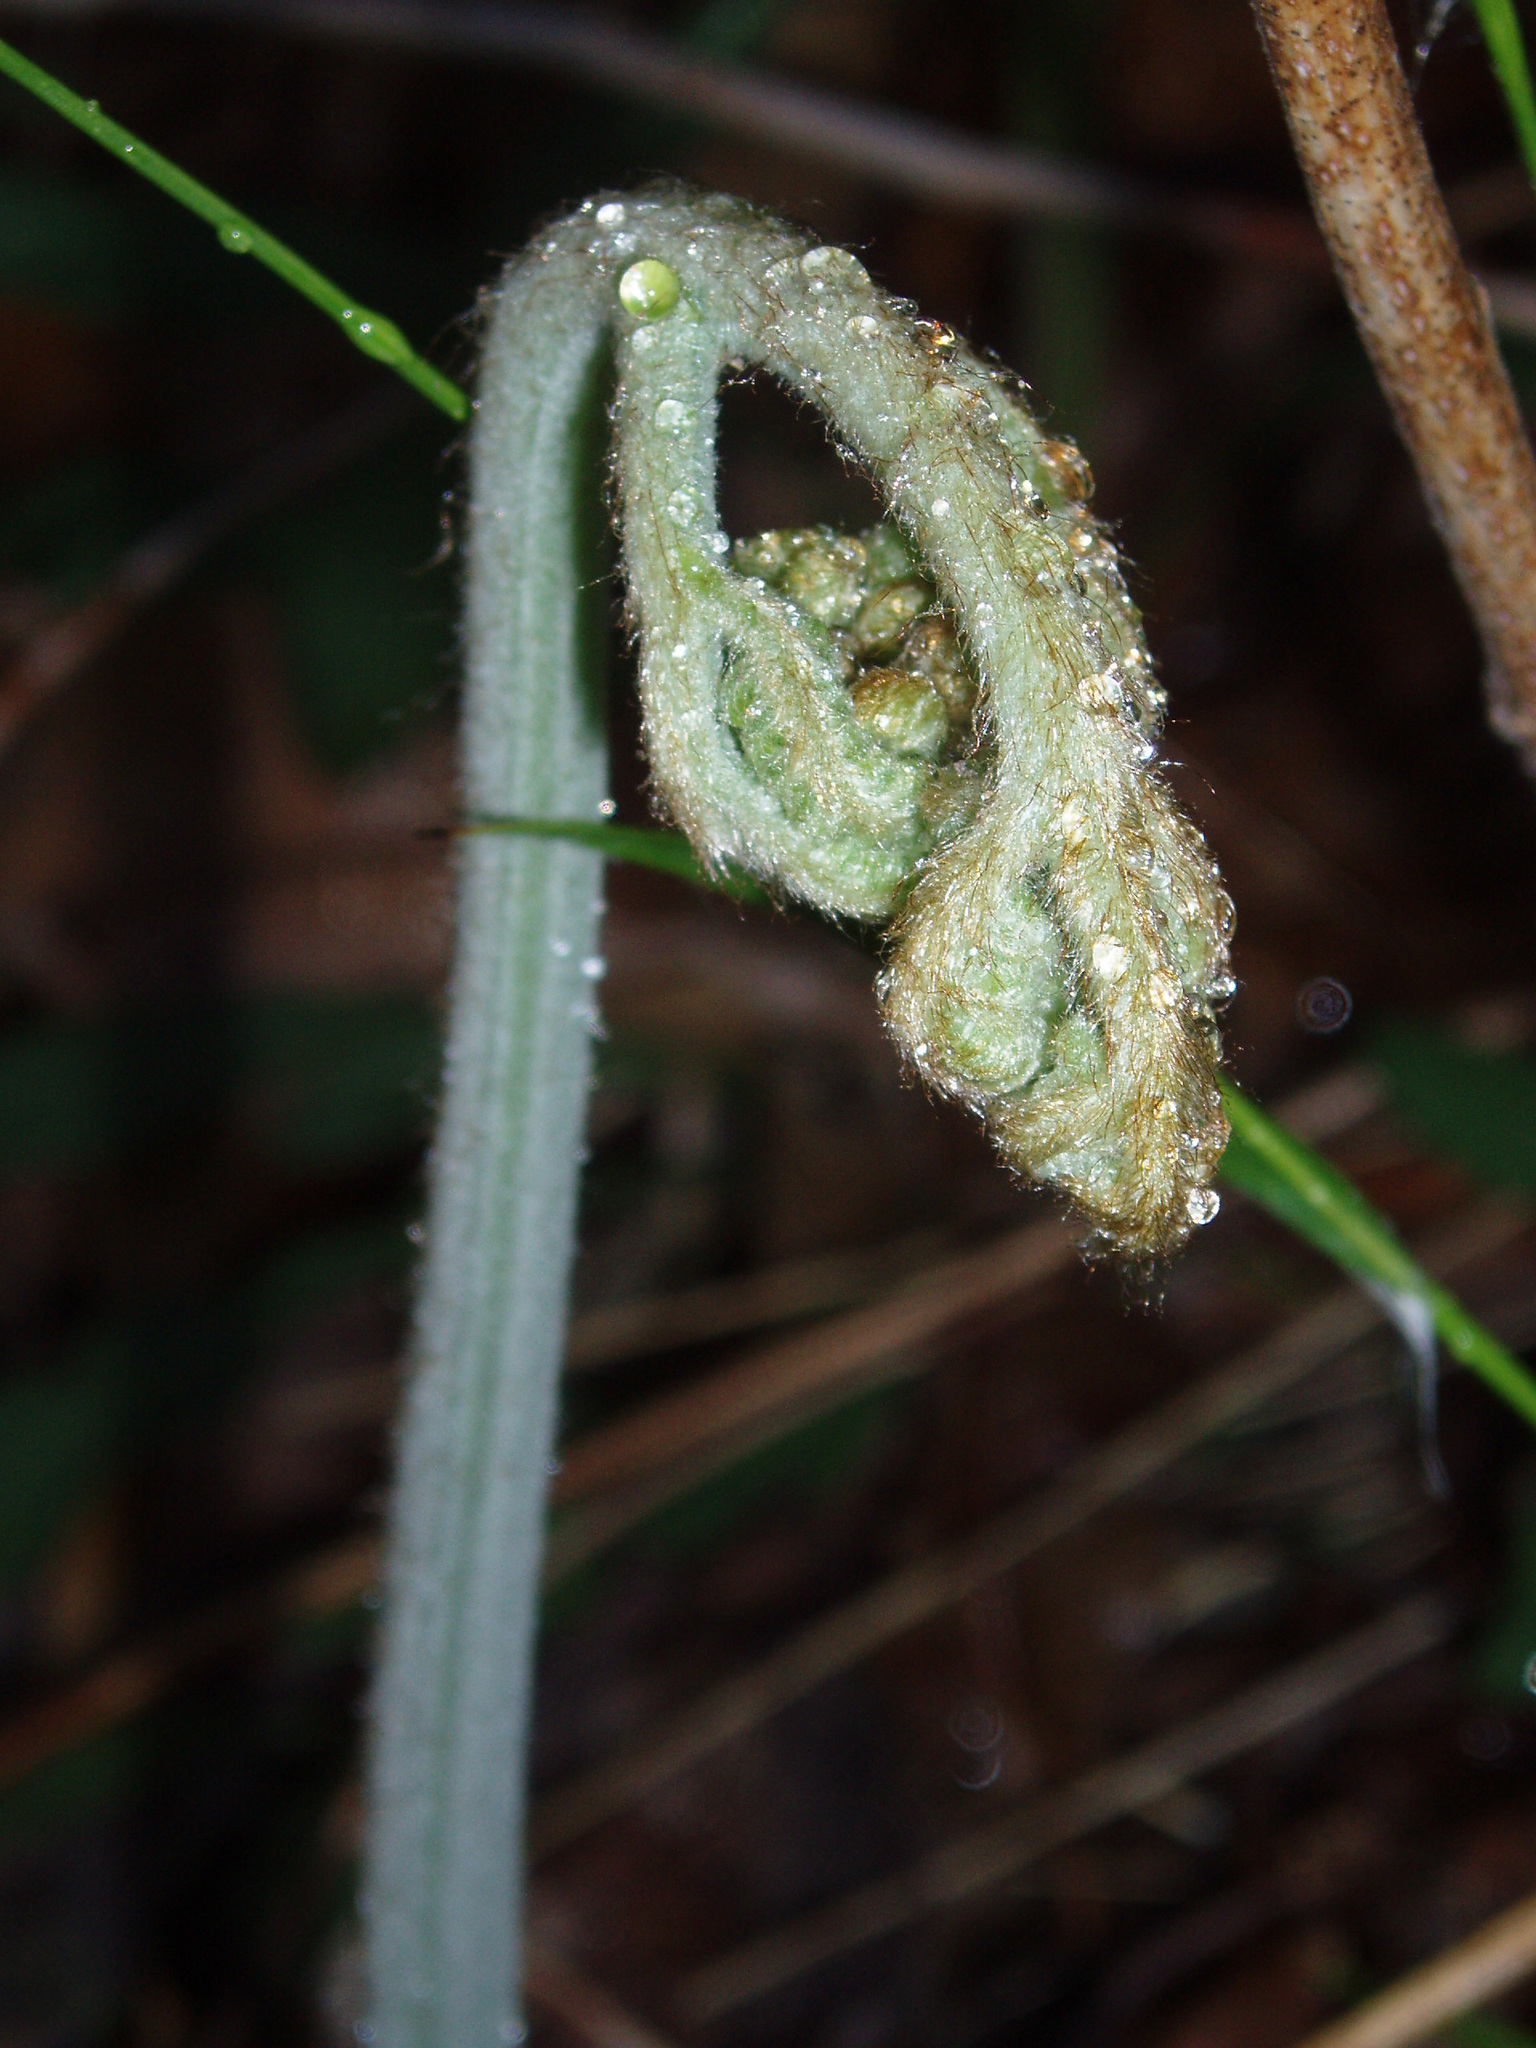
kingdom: Plantae
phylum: Tracheophyta
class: Polypodiopsida
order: Polypodiales
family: Dennstaedtiaceae
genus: Pteridium
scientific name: Pteridium aquilinum
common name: Bracken
